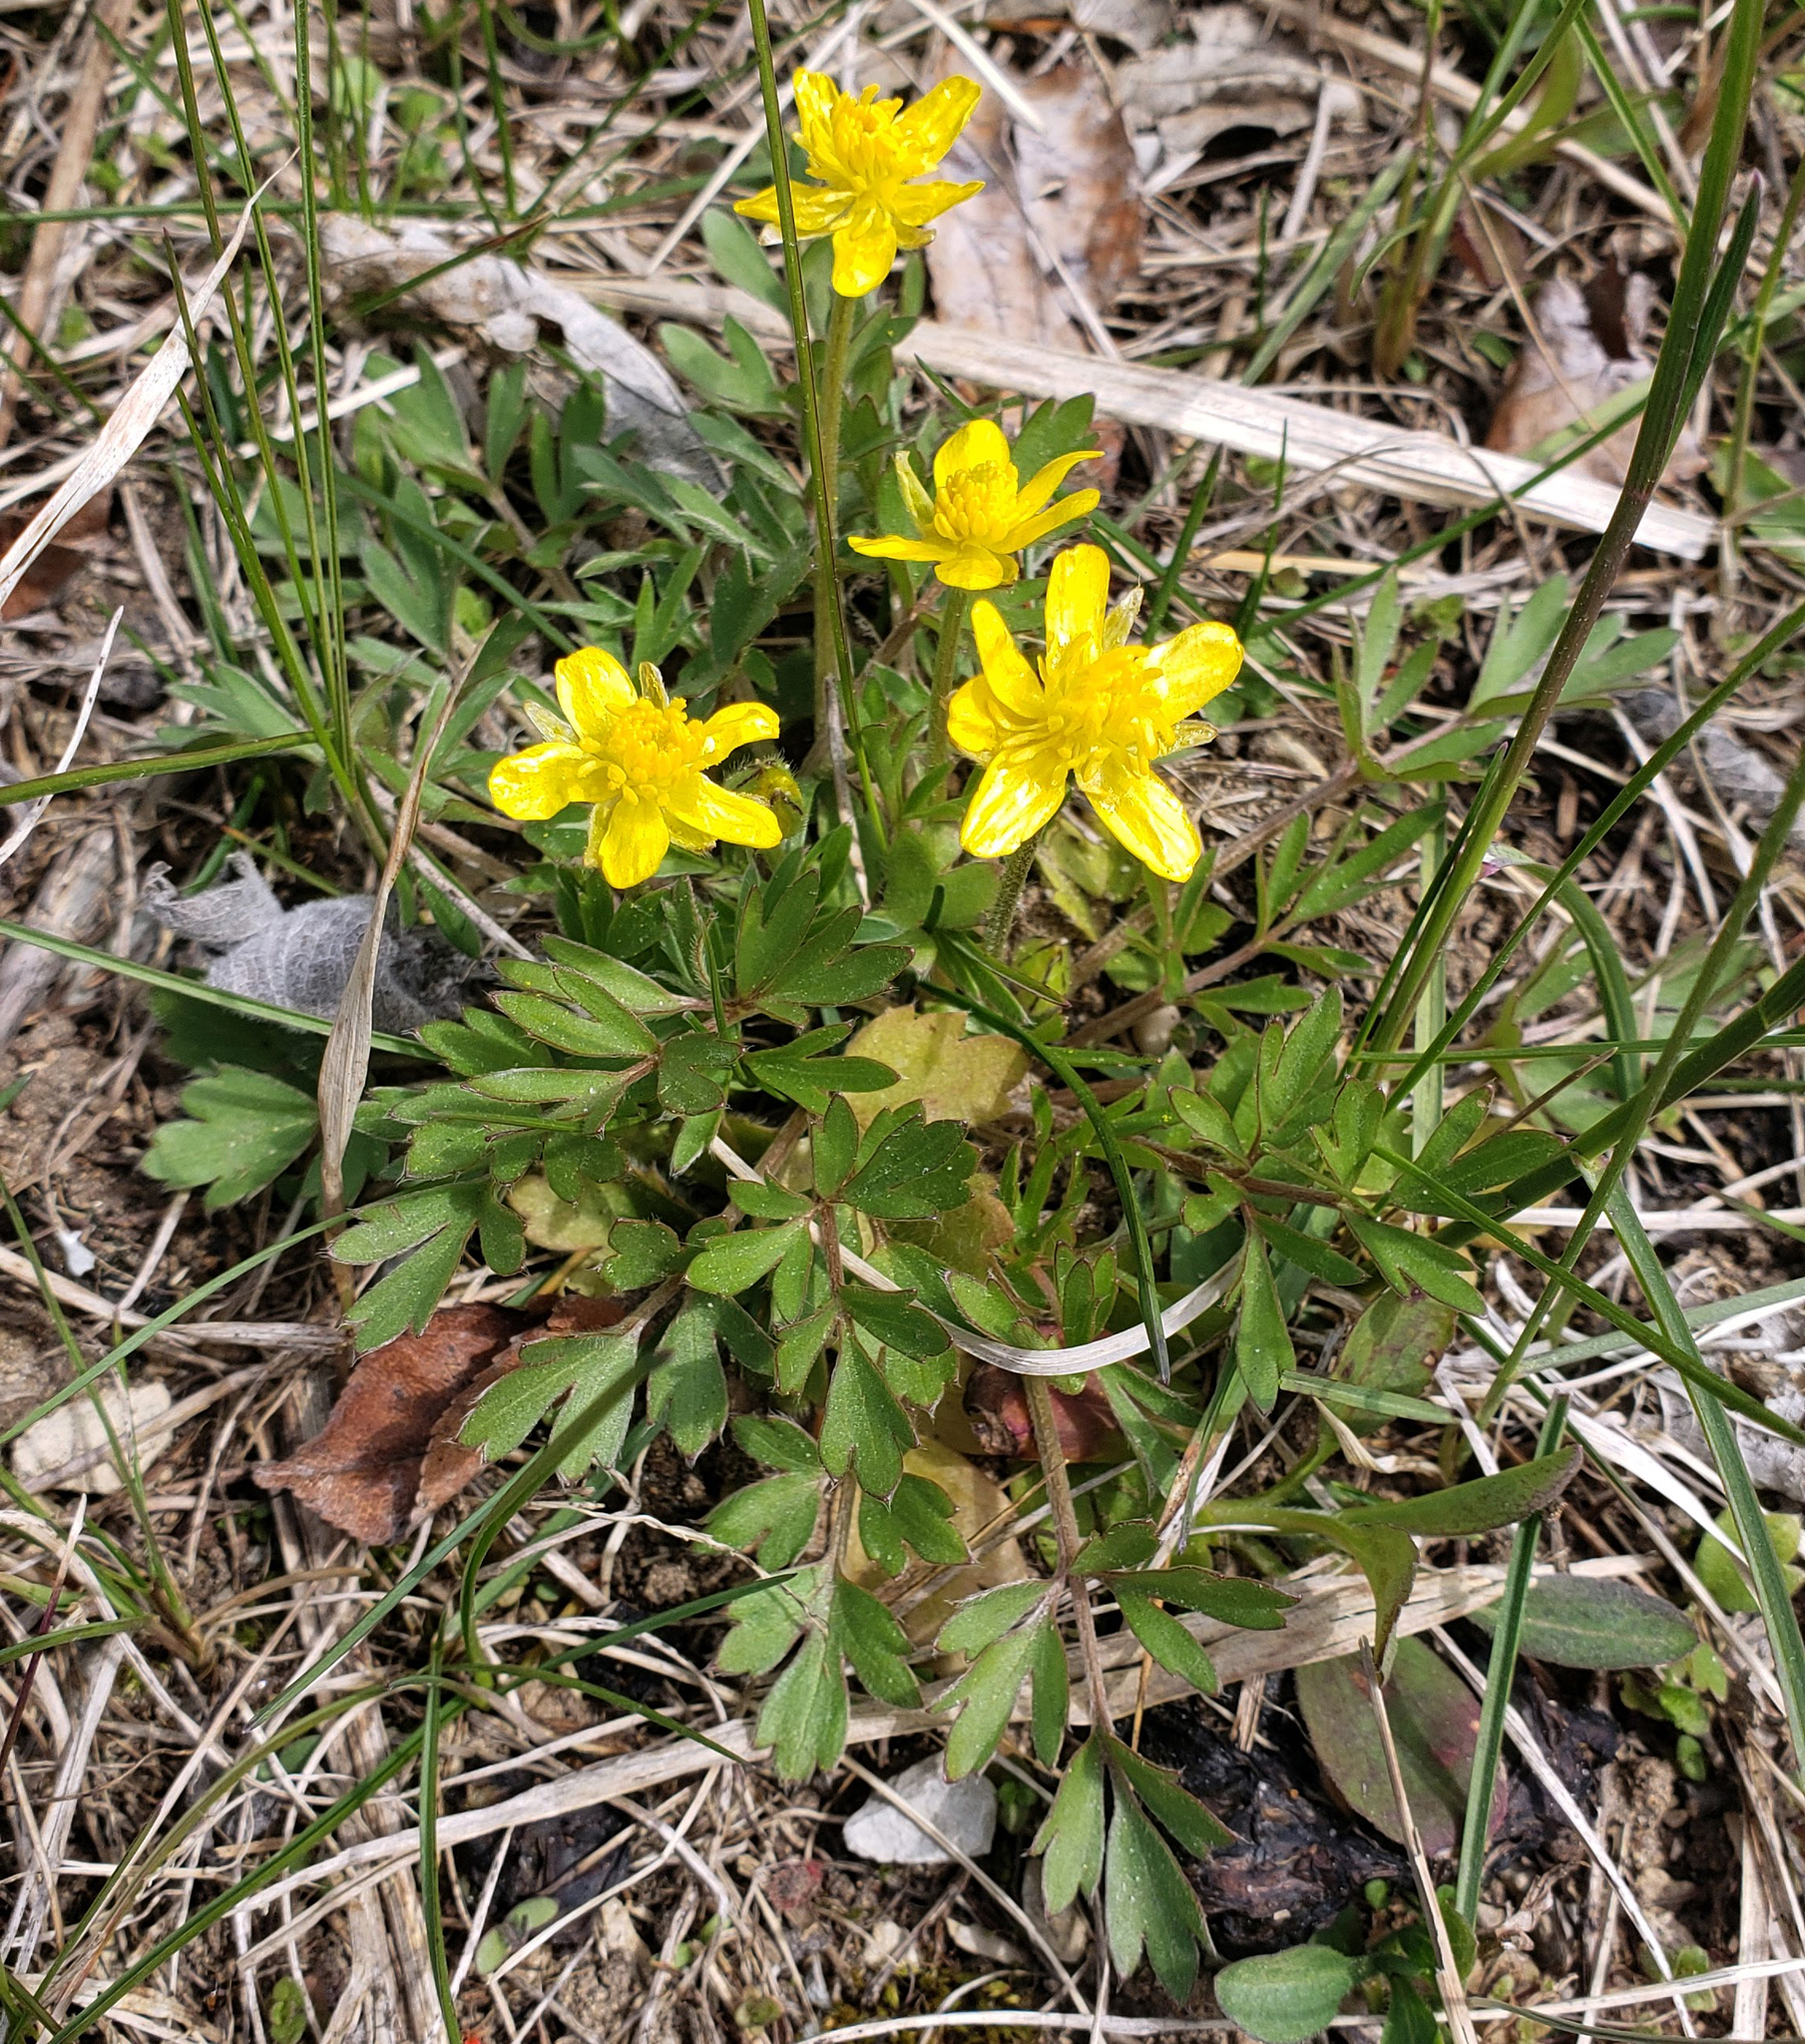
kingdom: Plantae
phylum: Tracheophyta
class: Magnoliopsida
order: Ranunculales
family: Ranunculaceae
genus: Ranunculus
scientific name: Ranunculus fascicularis
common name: Early buttercup
